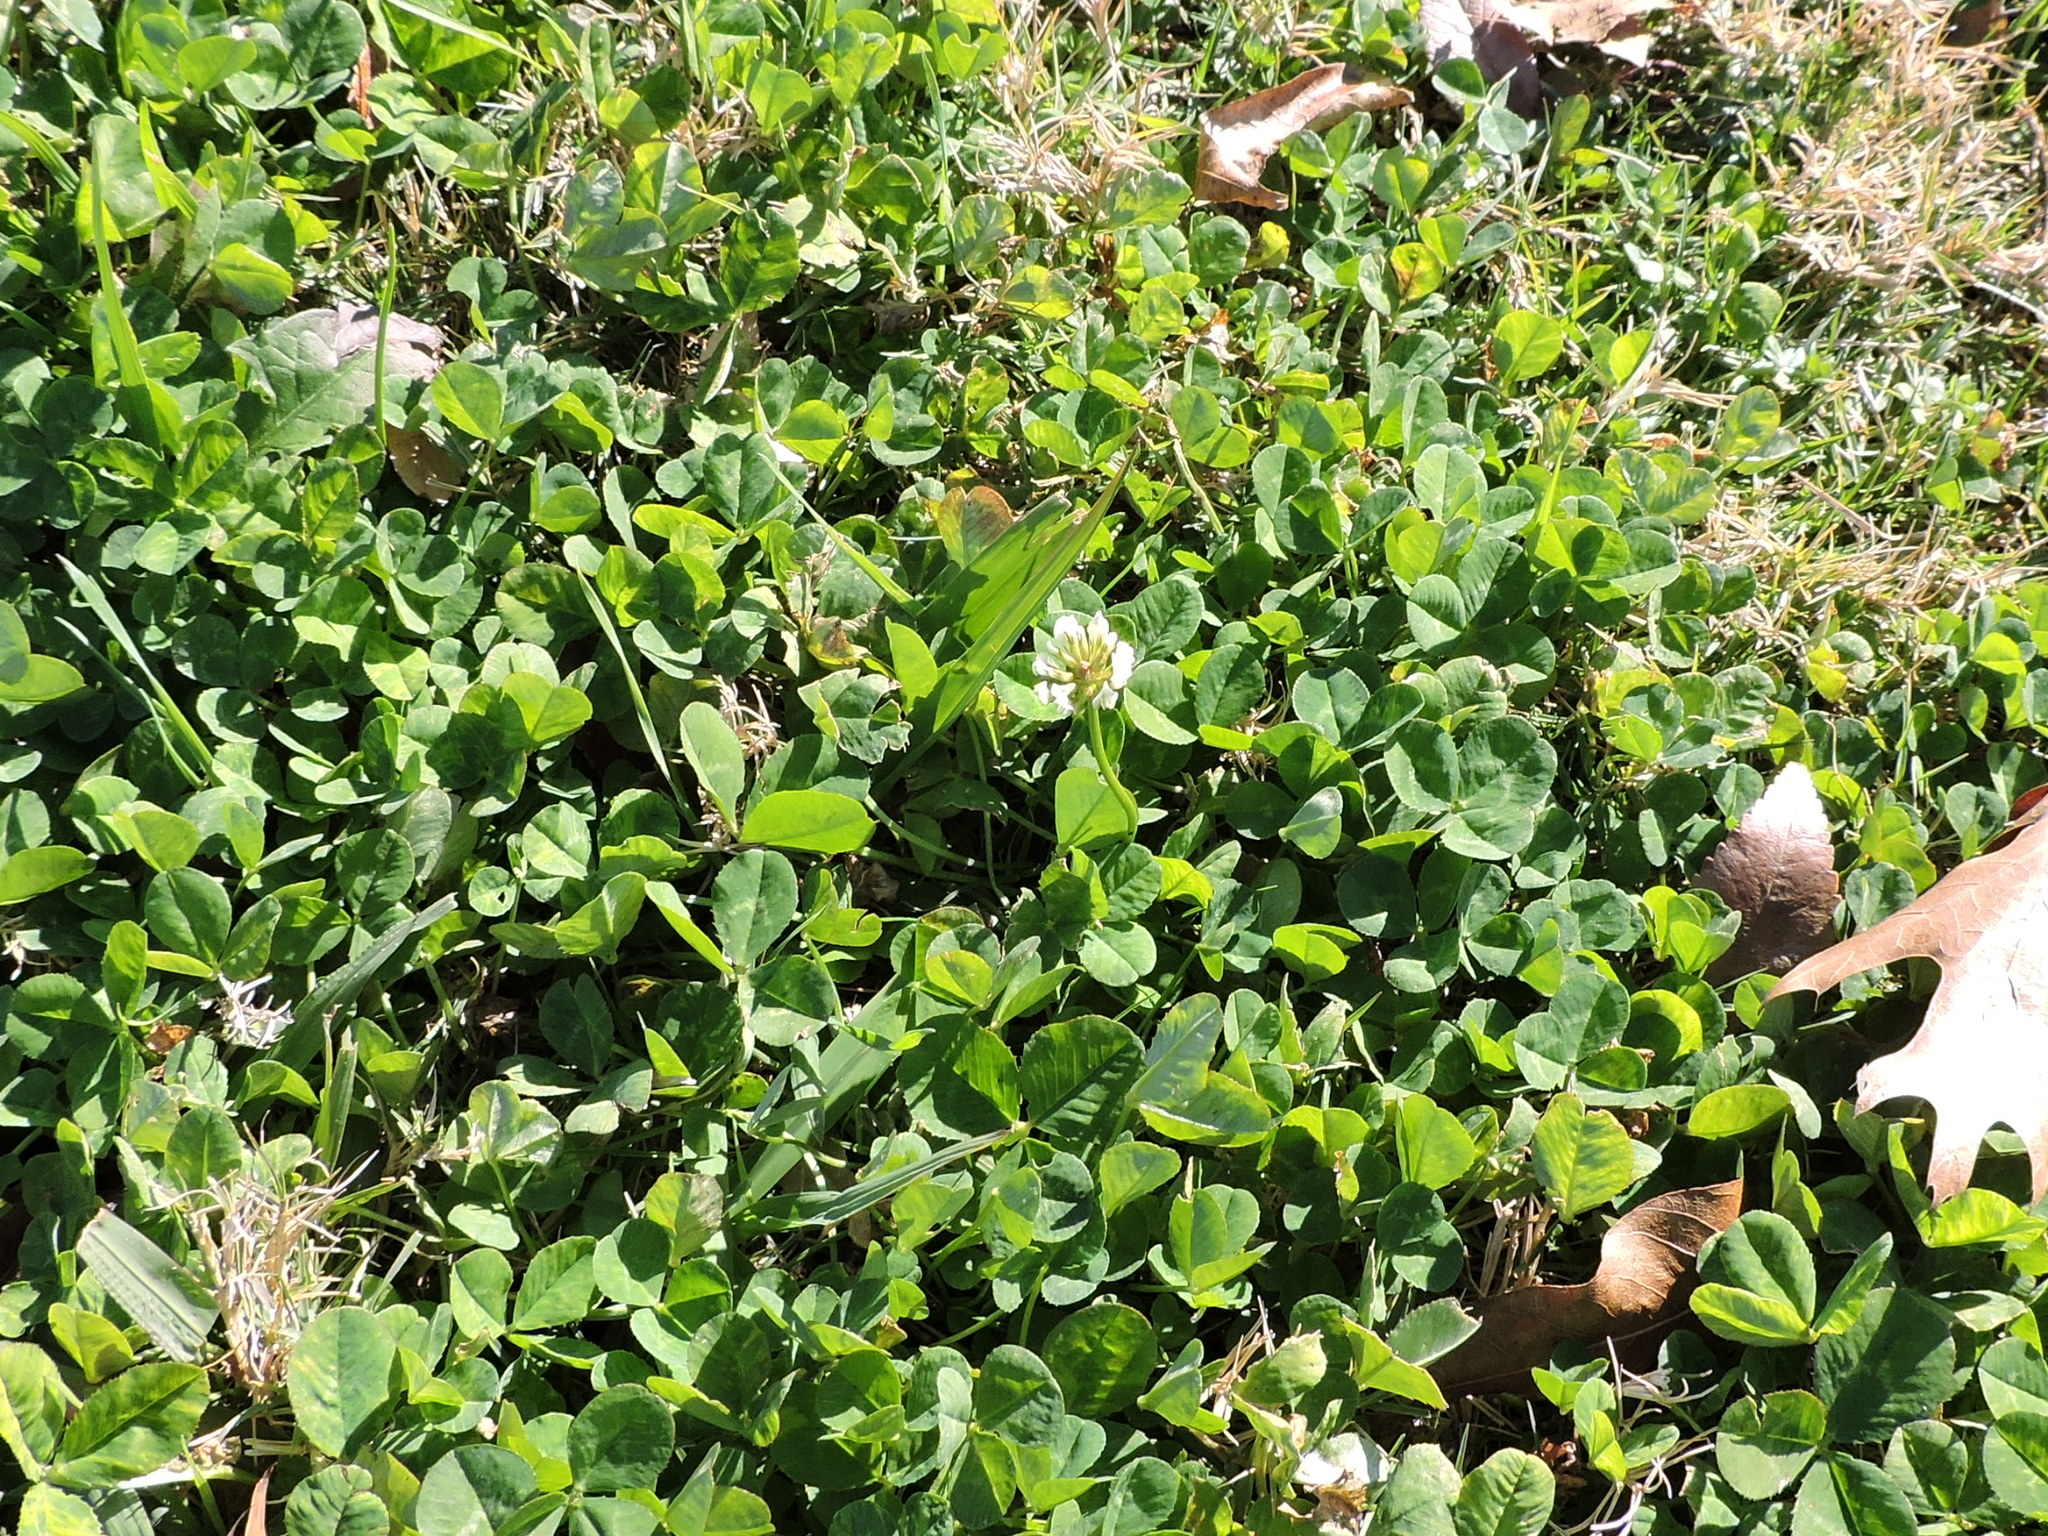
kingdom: Plantae
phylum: Tracheophyta
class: Magnoliopsida
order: Fabales
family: Fabaceae
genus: Trifolium
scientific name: Trifolium repens
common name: White clover
